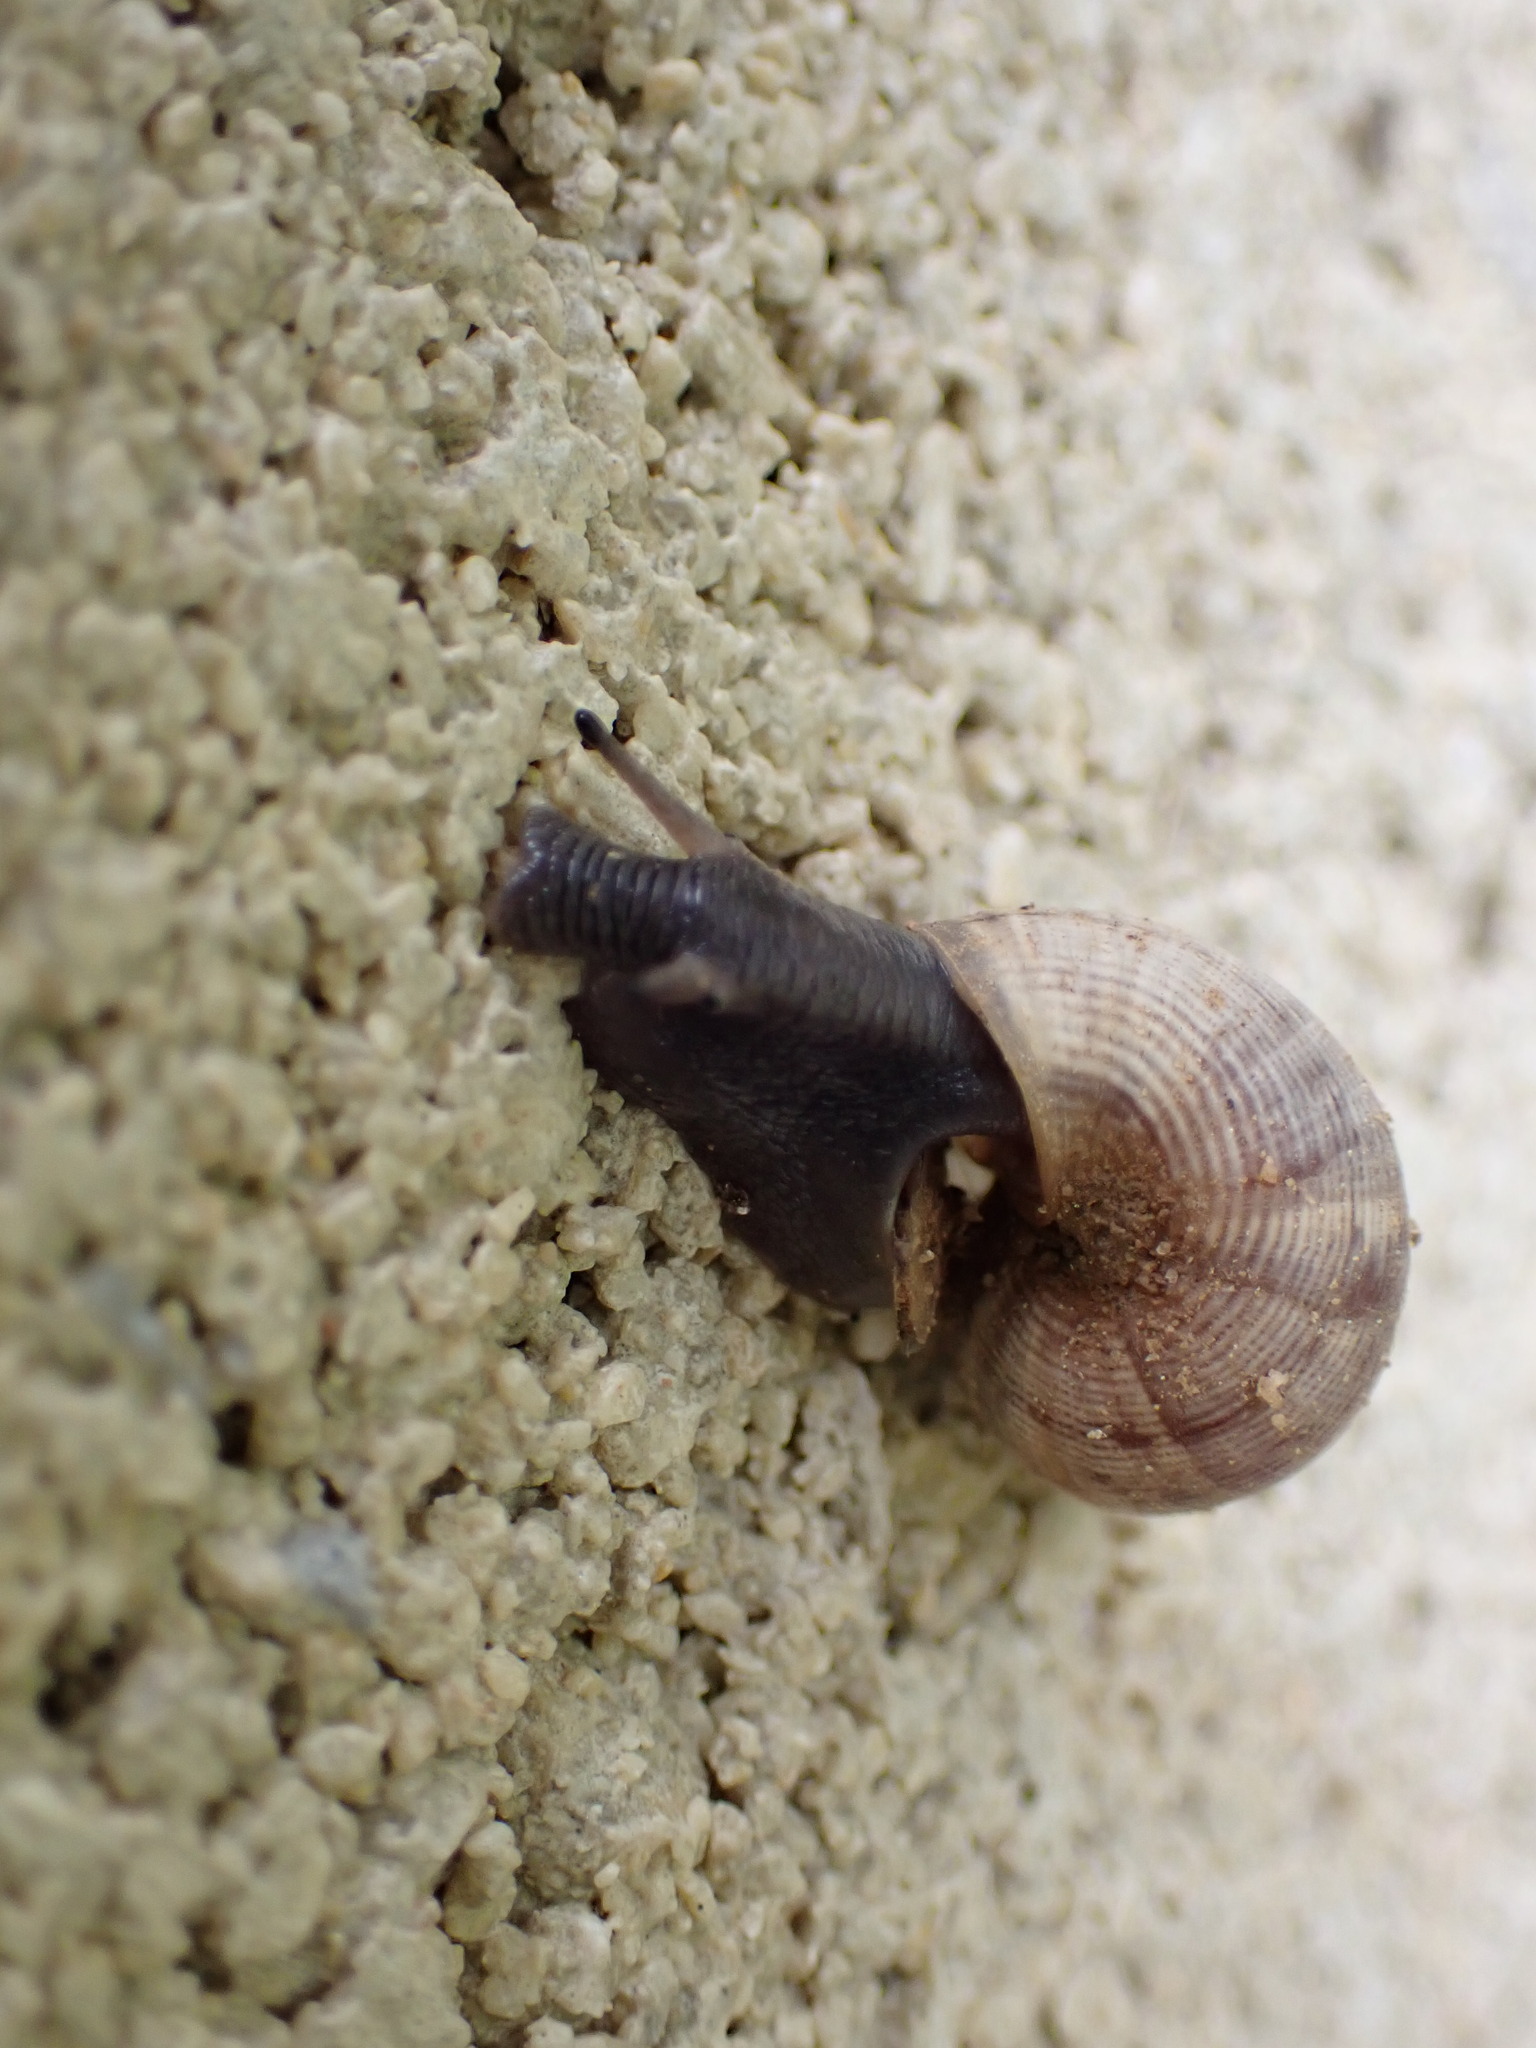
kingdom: Animalia
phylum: Mollusca
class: Gastropoda
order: Littorinimorpha
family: Pomatiidae
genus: Pomatias
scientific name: Pomatias elegans
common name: Red-mouthed snail
